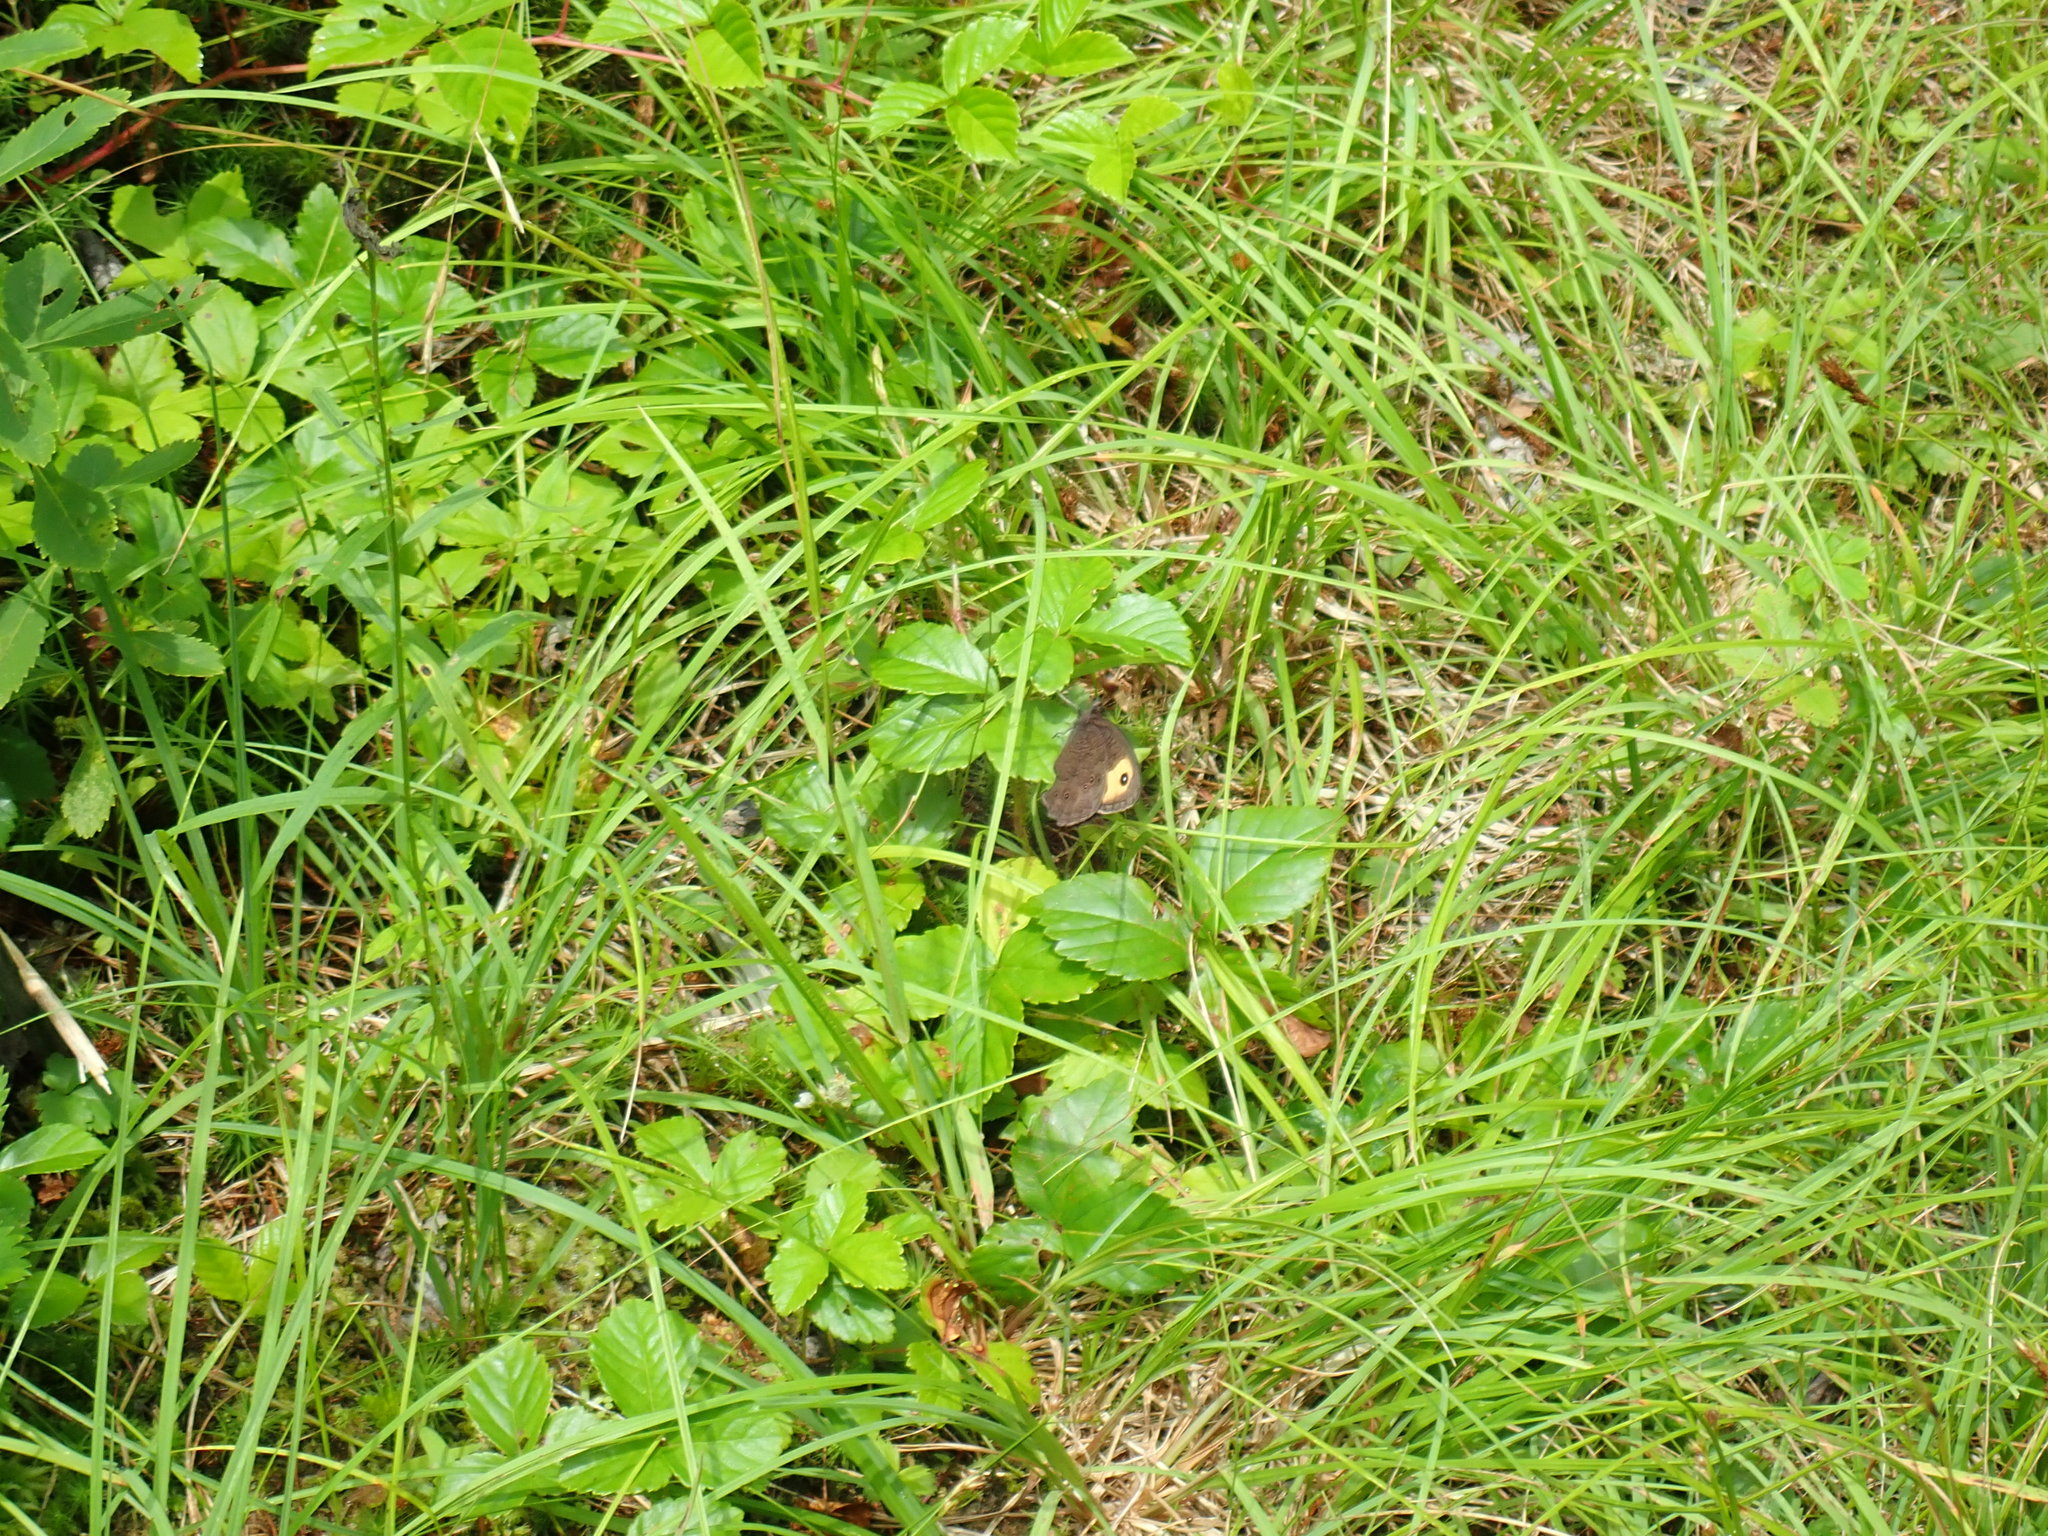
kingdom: Animalia
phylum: Arthropoda
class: Insecta
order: Lepidoptera
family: Nymphalidae
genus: Cercyonis
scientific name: Cercyonis pegala
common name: Common wood-nymph
